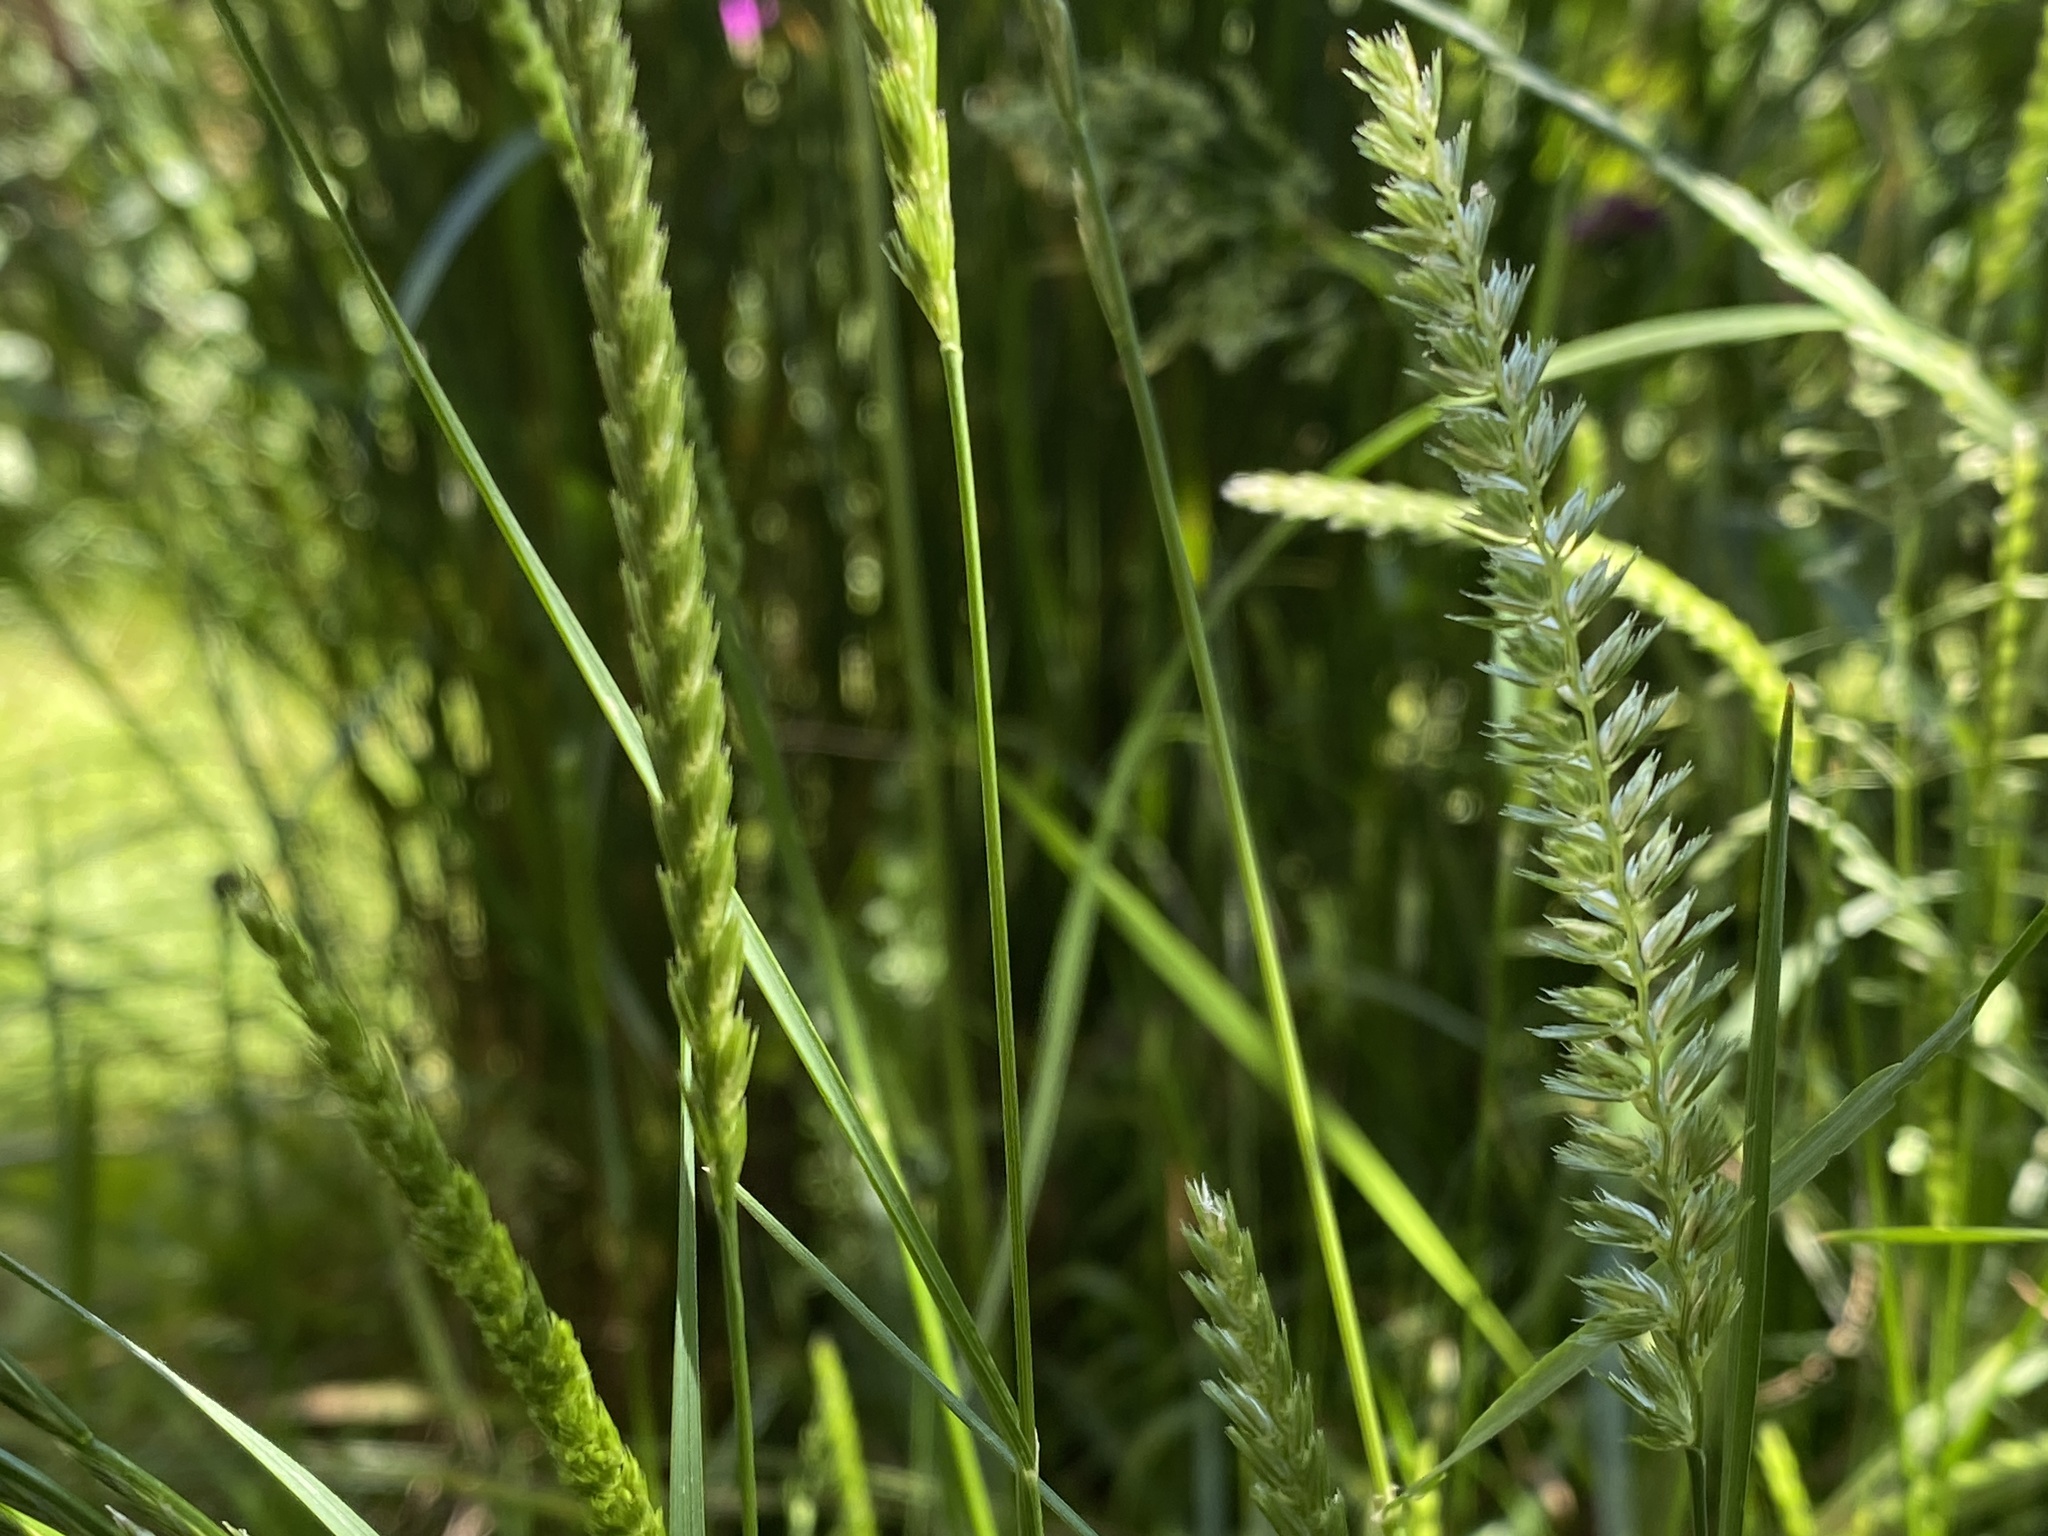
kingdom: Plantae
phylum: Tracheophyta
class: Liliopsida
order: Poales
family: Poaceae
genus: Cynosurus
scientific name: Cynosurus cristatus
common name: Crested dog's-tail
